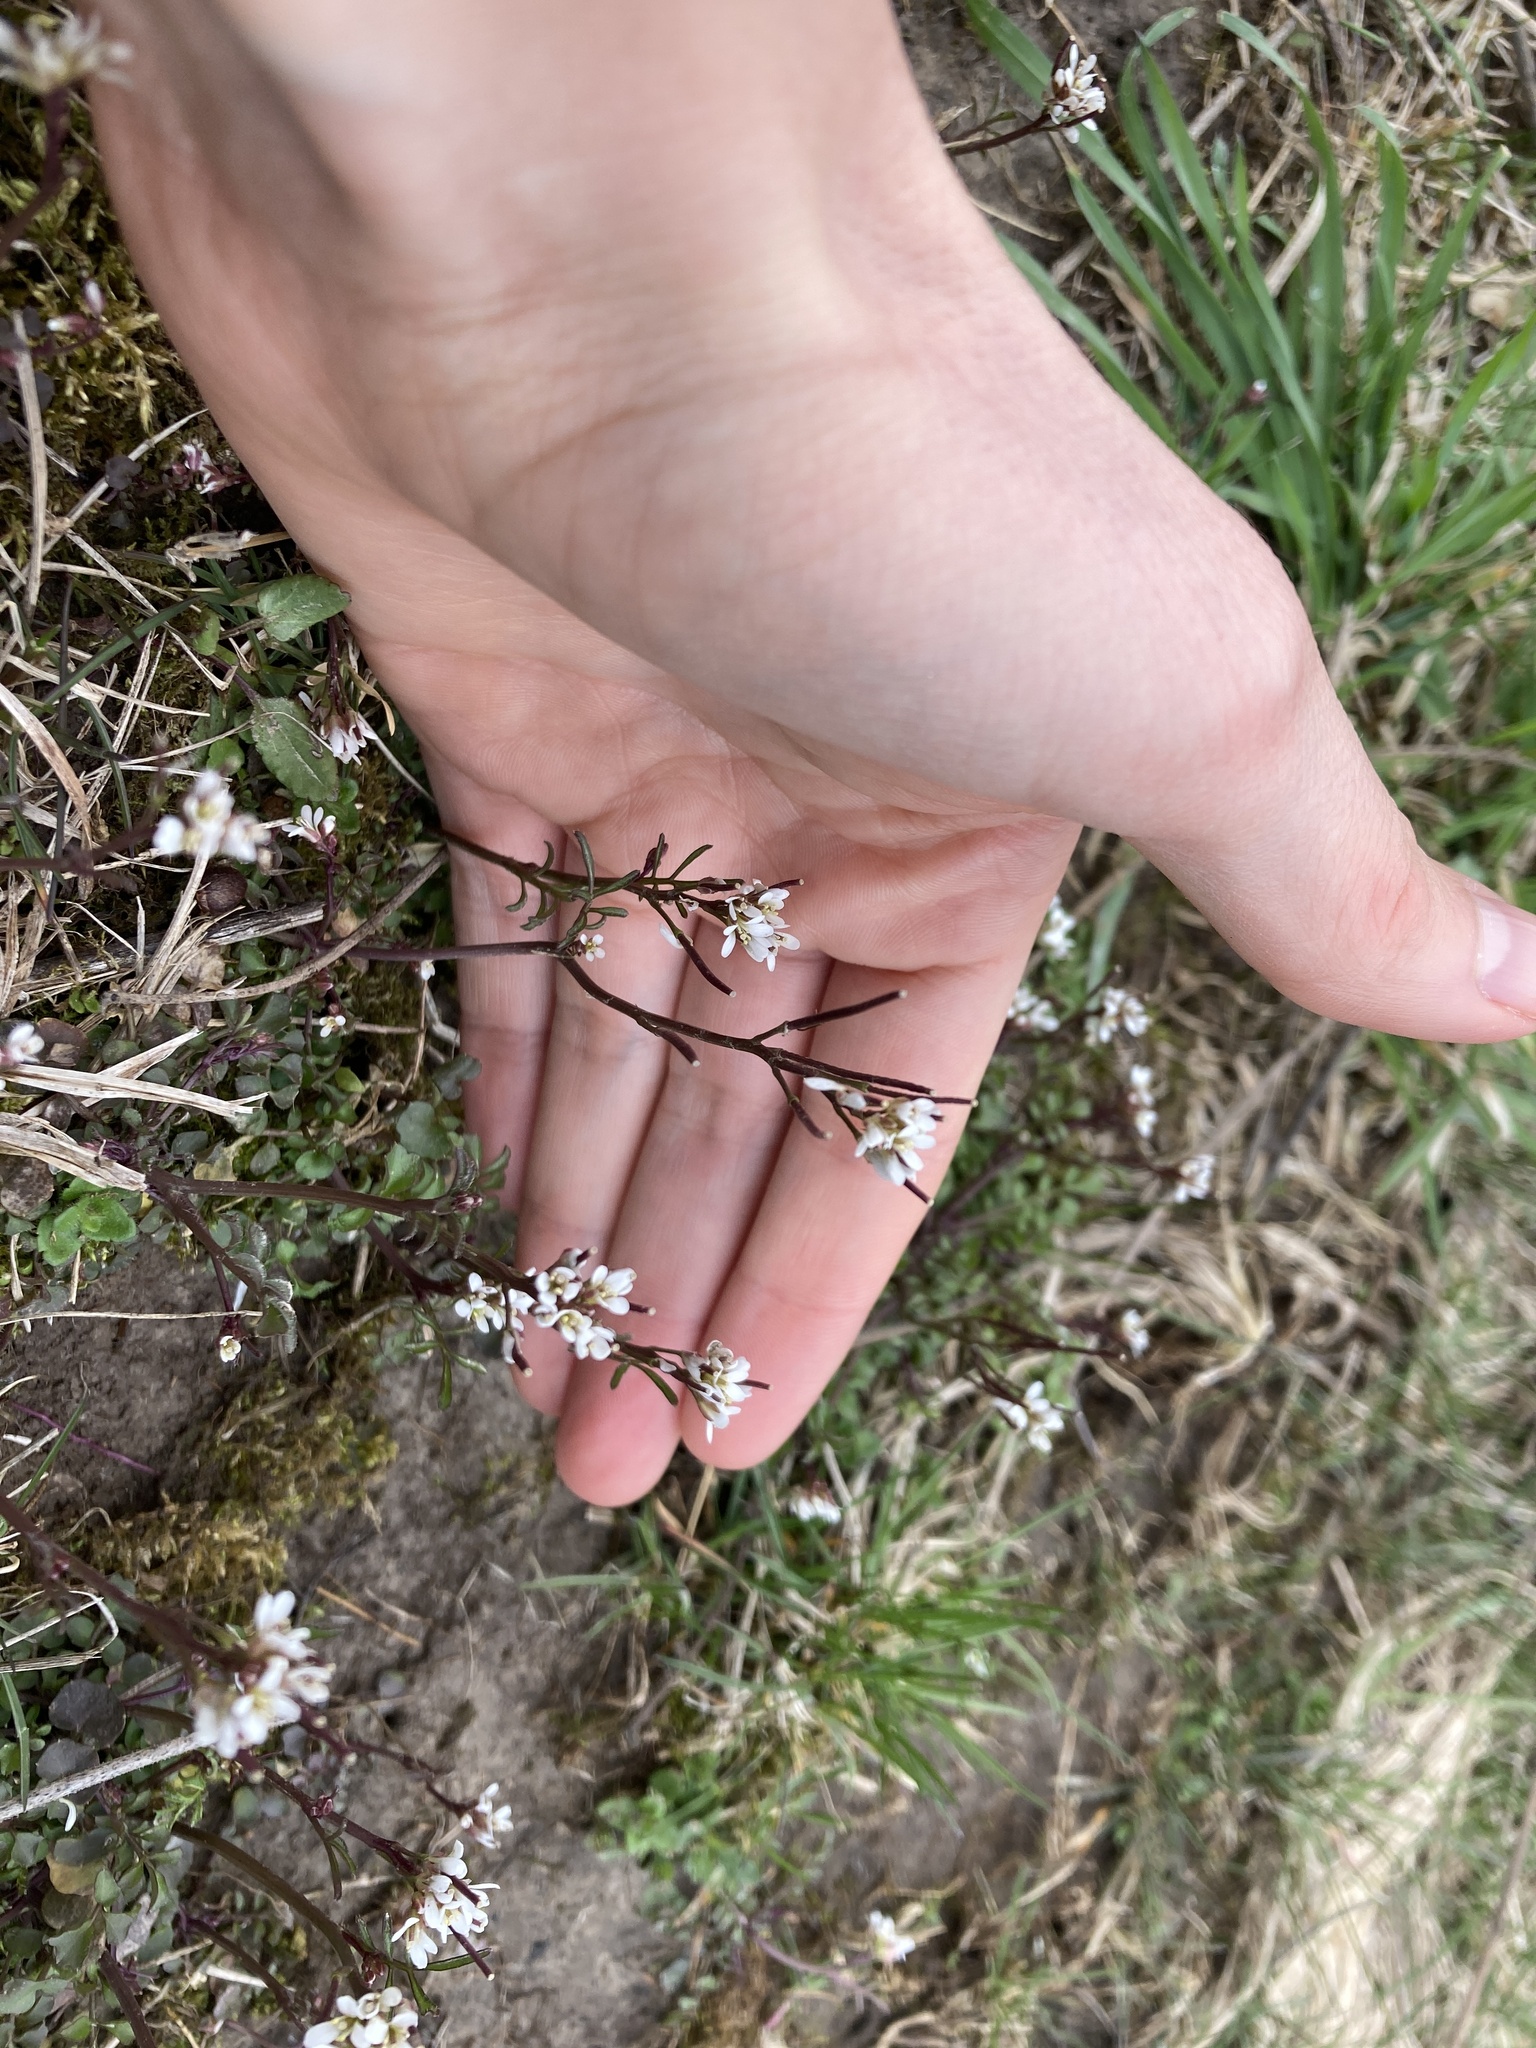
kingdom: Plantae
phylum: Tracheophyta
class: Magnoliopsida
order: Brassicales
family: Brassicaceae
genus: Cardamine
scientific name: Cardamine hirsuta
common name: Hairy bittercress
